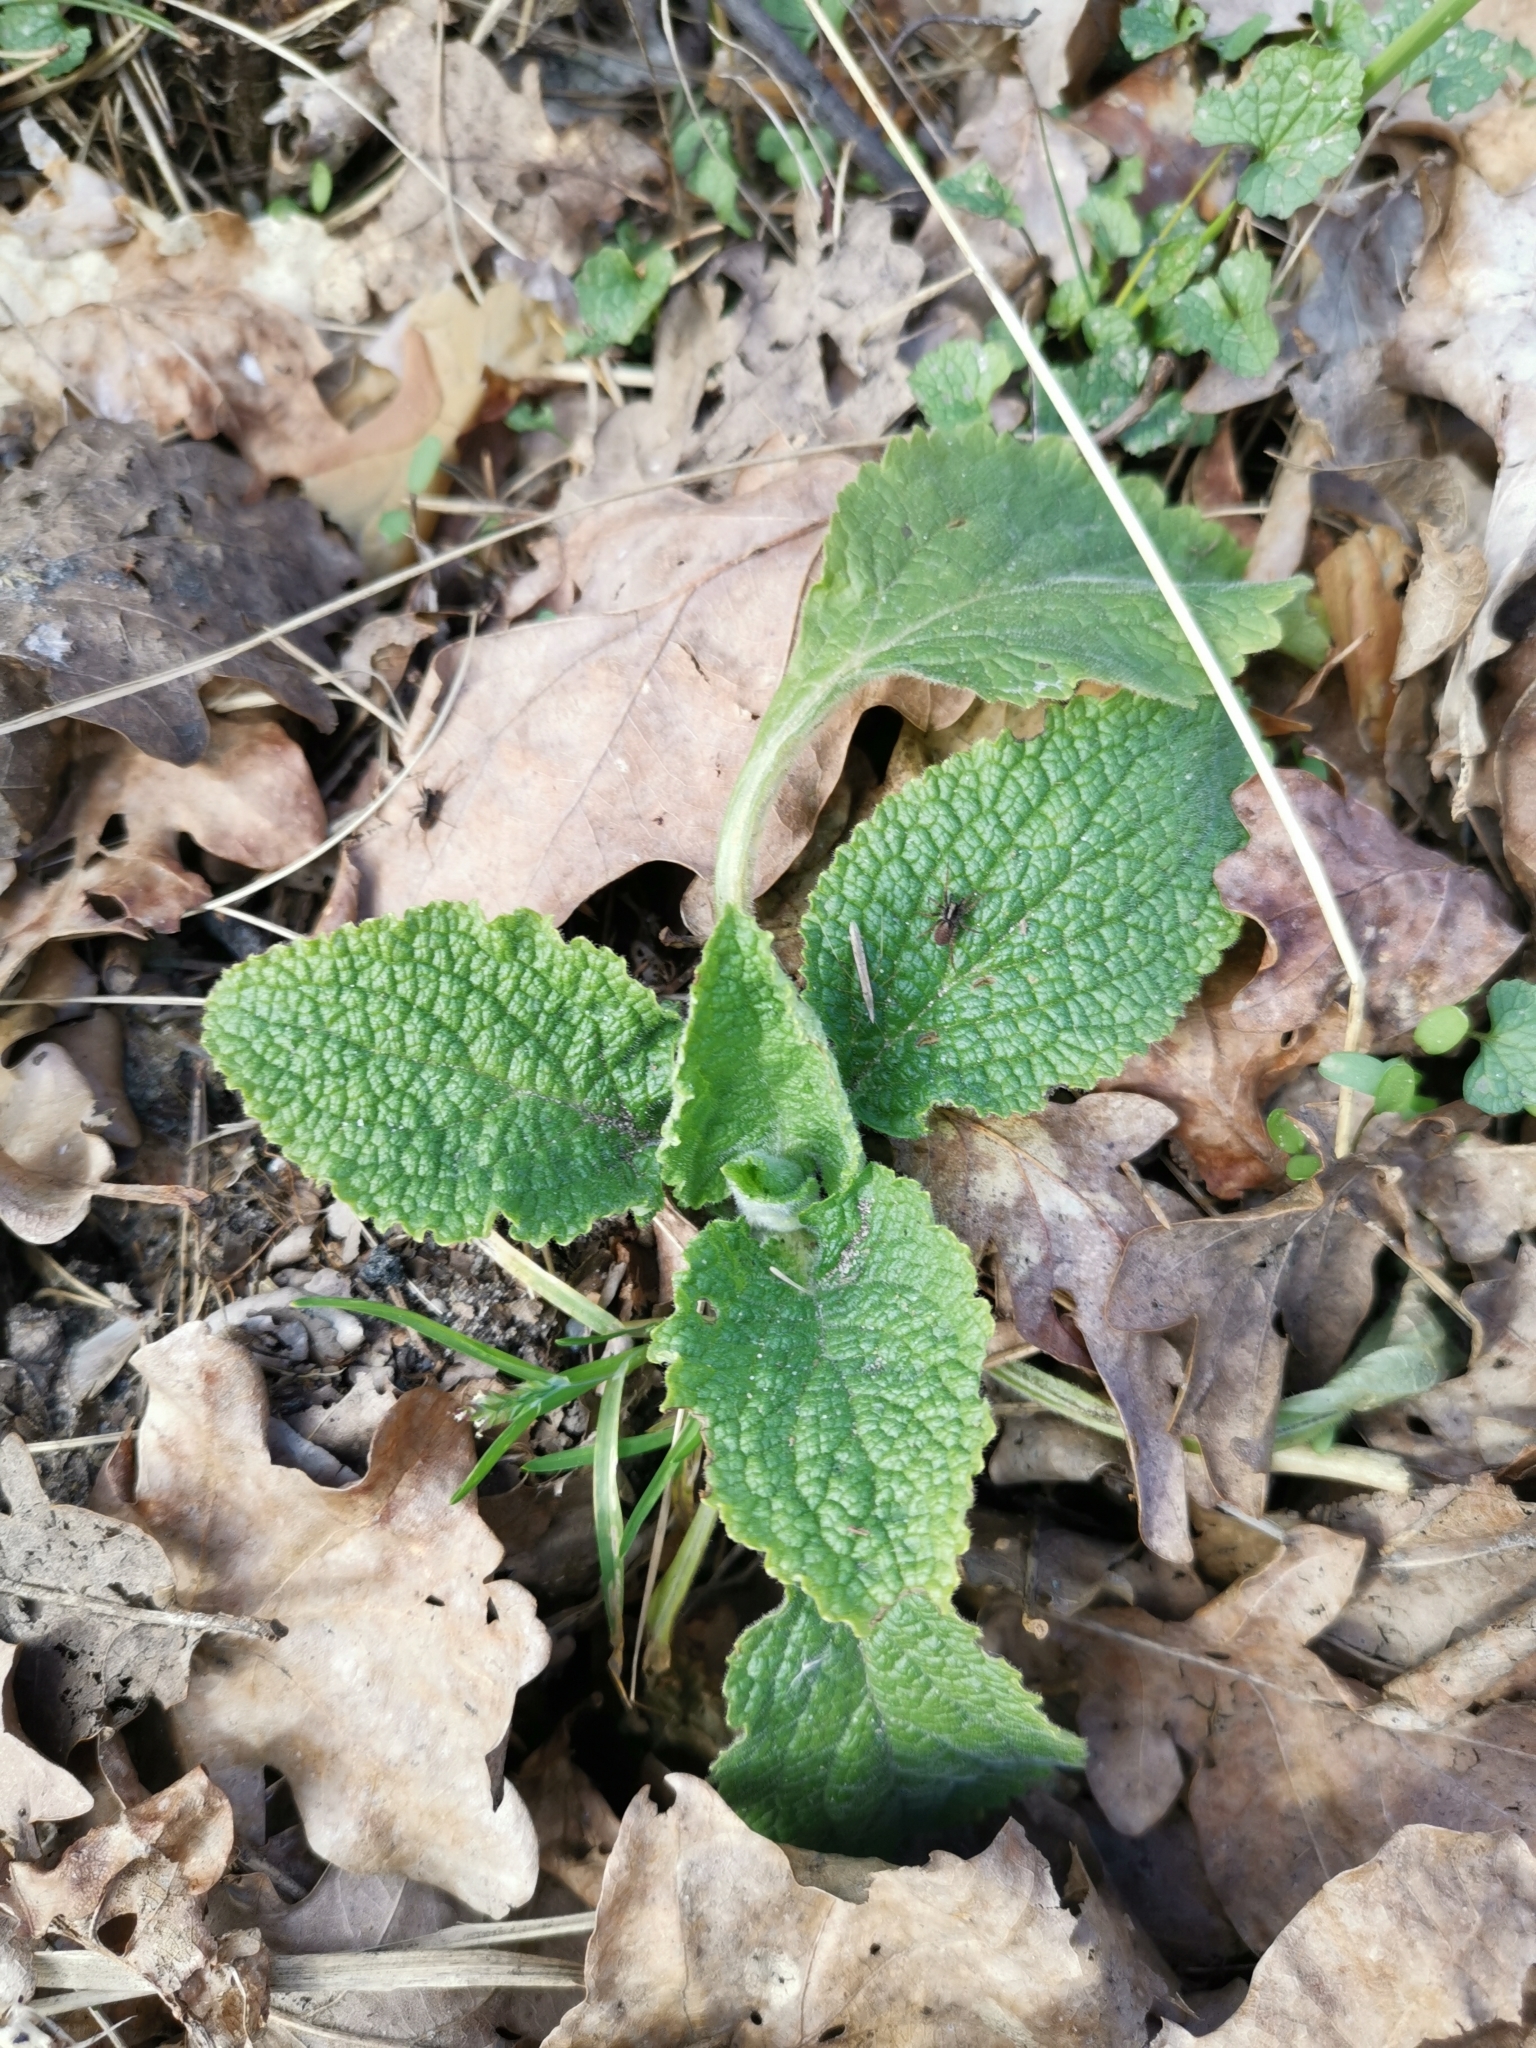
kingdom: Plantae
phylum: Tracheophyta
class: Magnoliopsida
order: Lamiales
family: Plantaginaceae
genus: Digitalis
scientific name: Digitalis purpurea
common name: Foxglove
